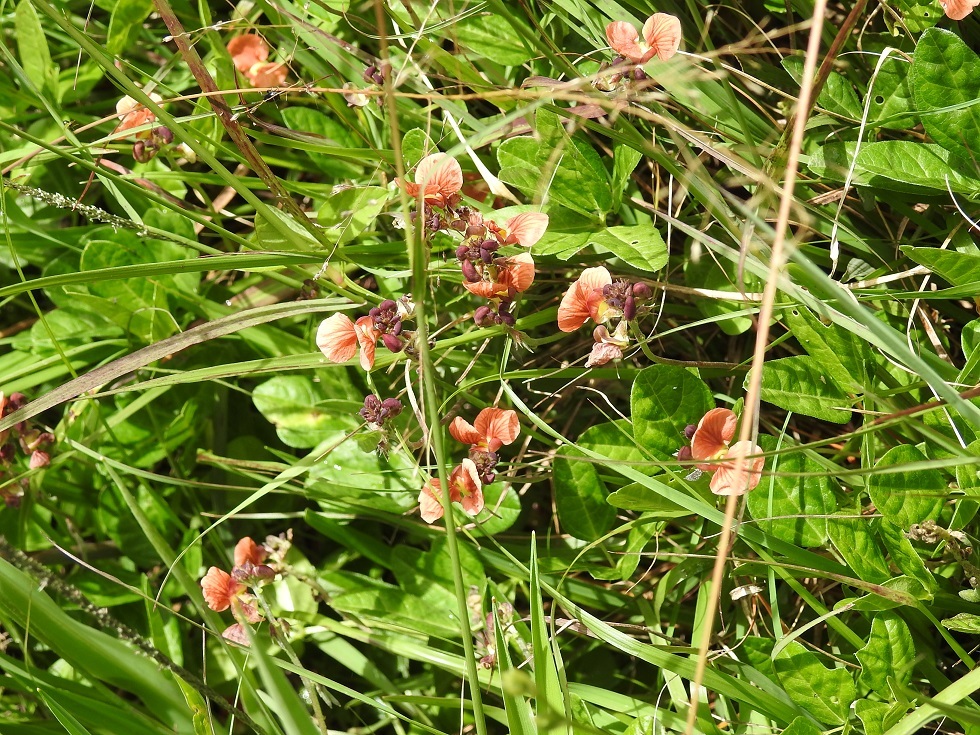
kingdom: Plantae
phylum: Tracheophyta
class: Magnoliopsida
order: Fabales
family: Fabaceae
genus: Macroptilium
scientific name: Macroptilium gibbosifolium
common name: Variableleaf bushbean
